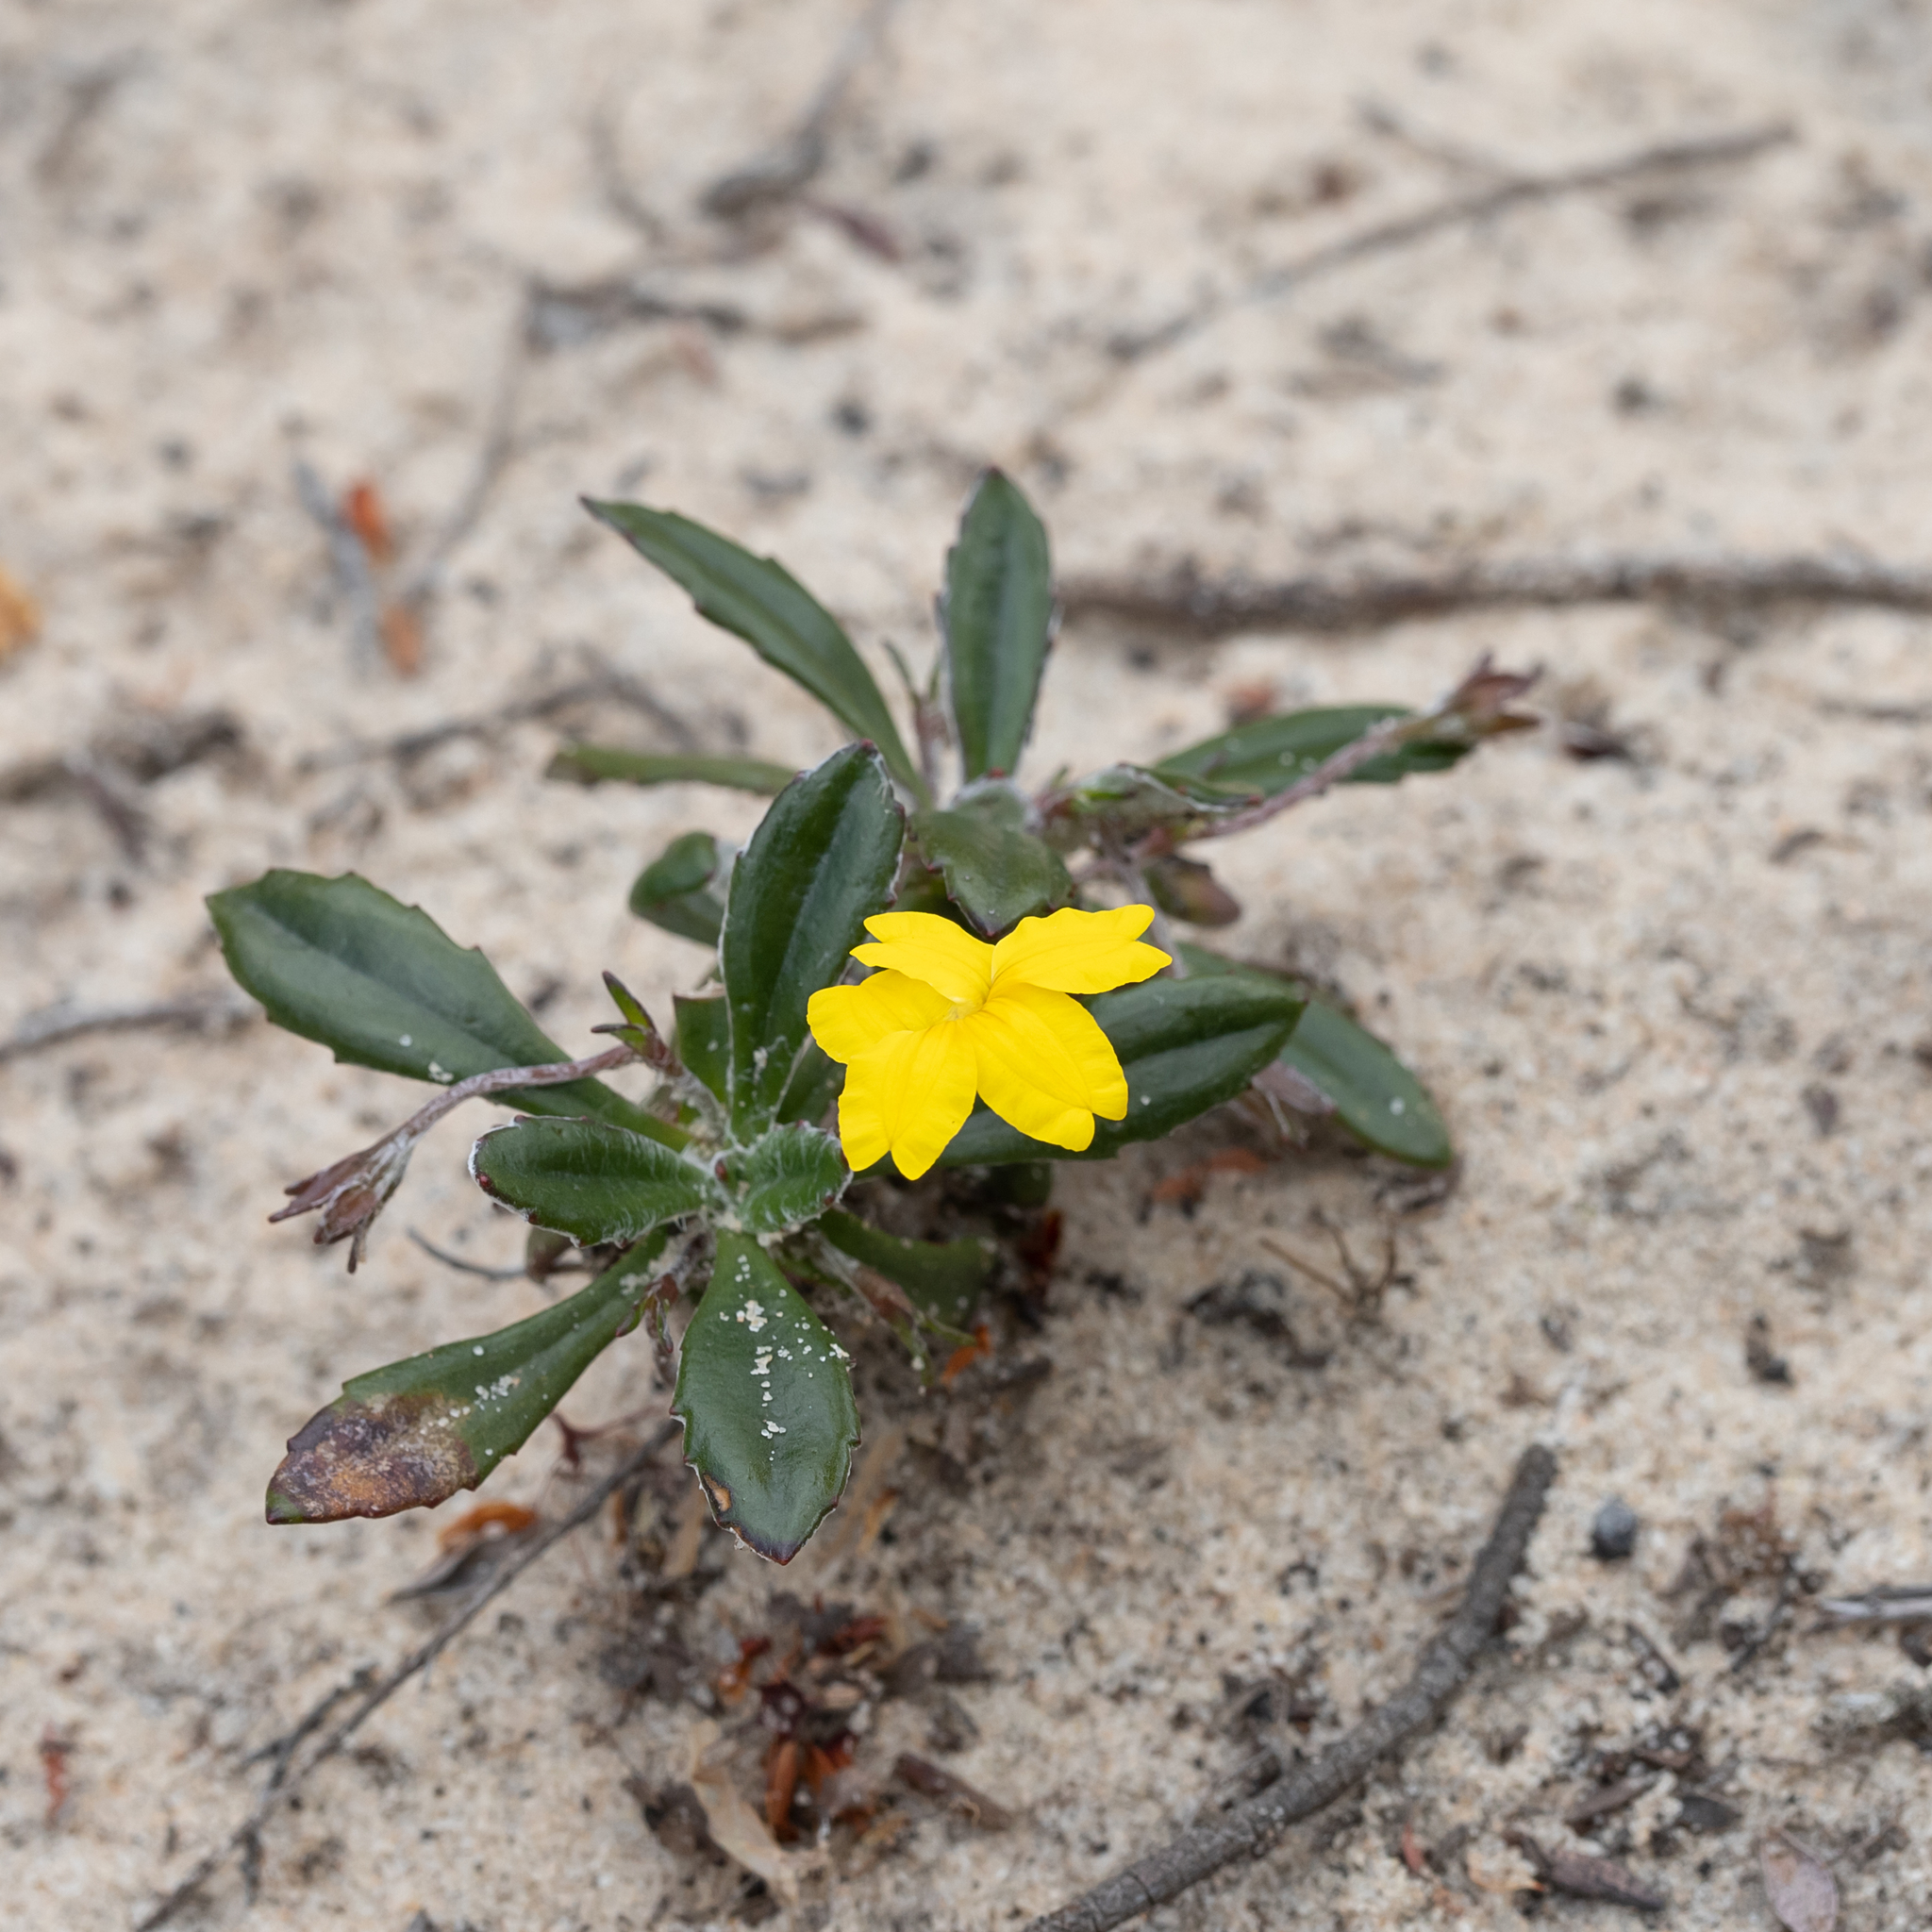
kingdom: Plantae
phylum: Tracheophyta
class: Magnoliopsida
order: Asterales
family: Goodeniaceae
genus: Goodenia
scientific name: Goodenia blackiana
